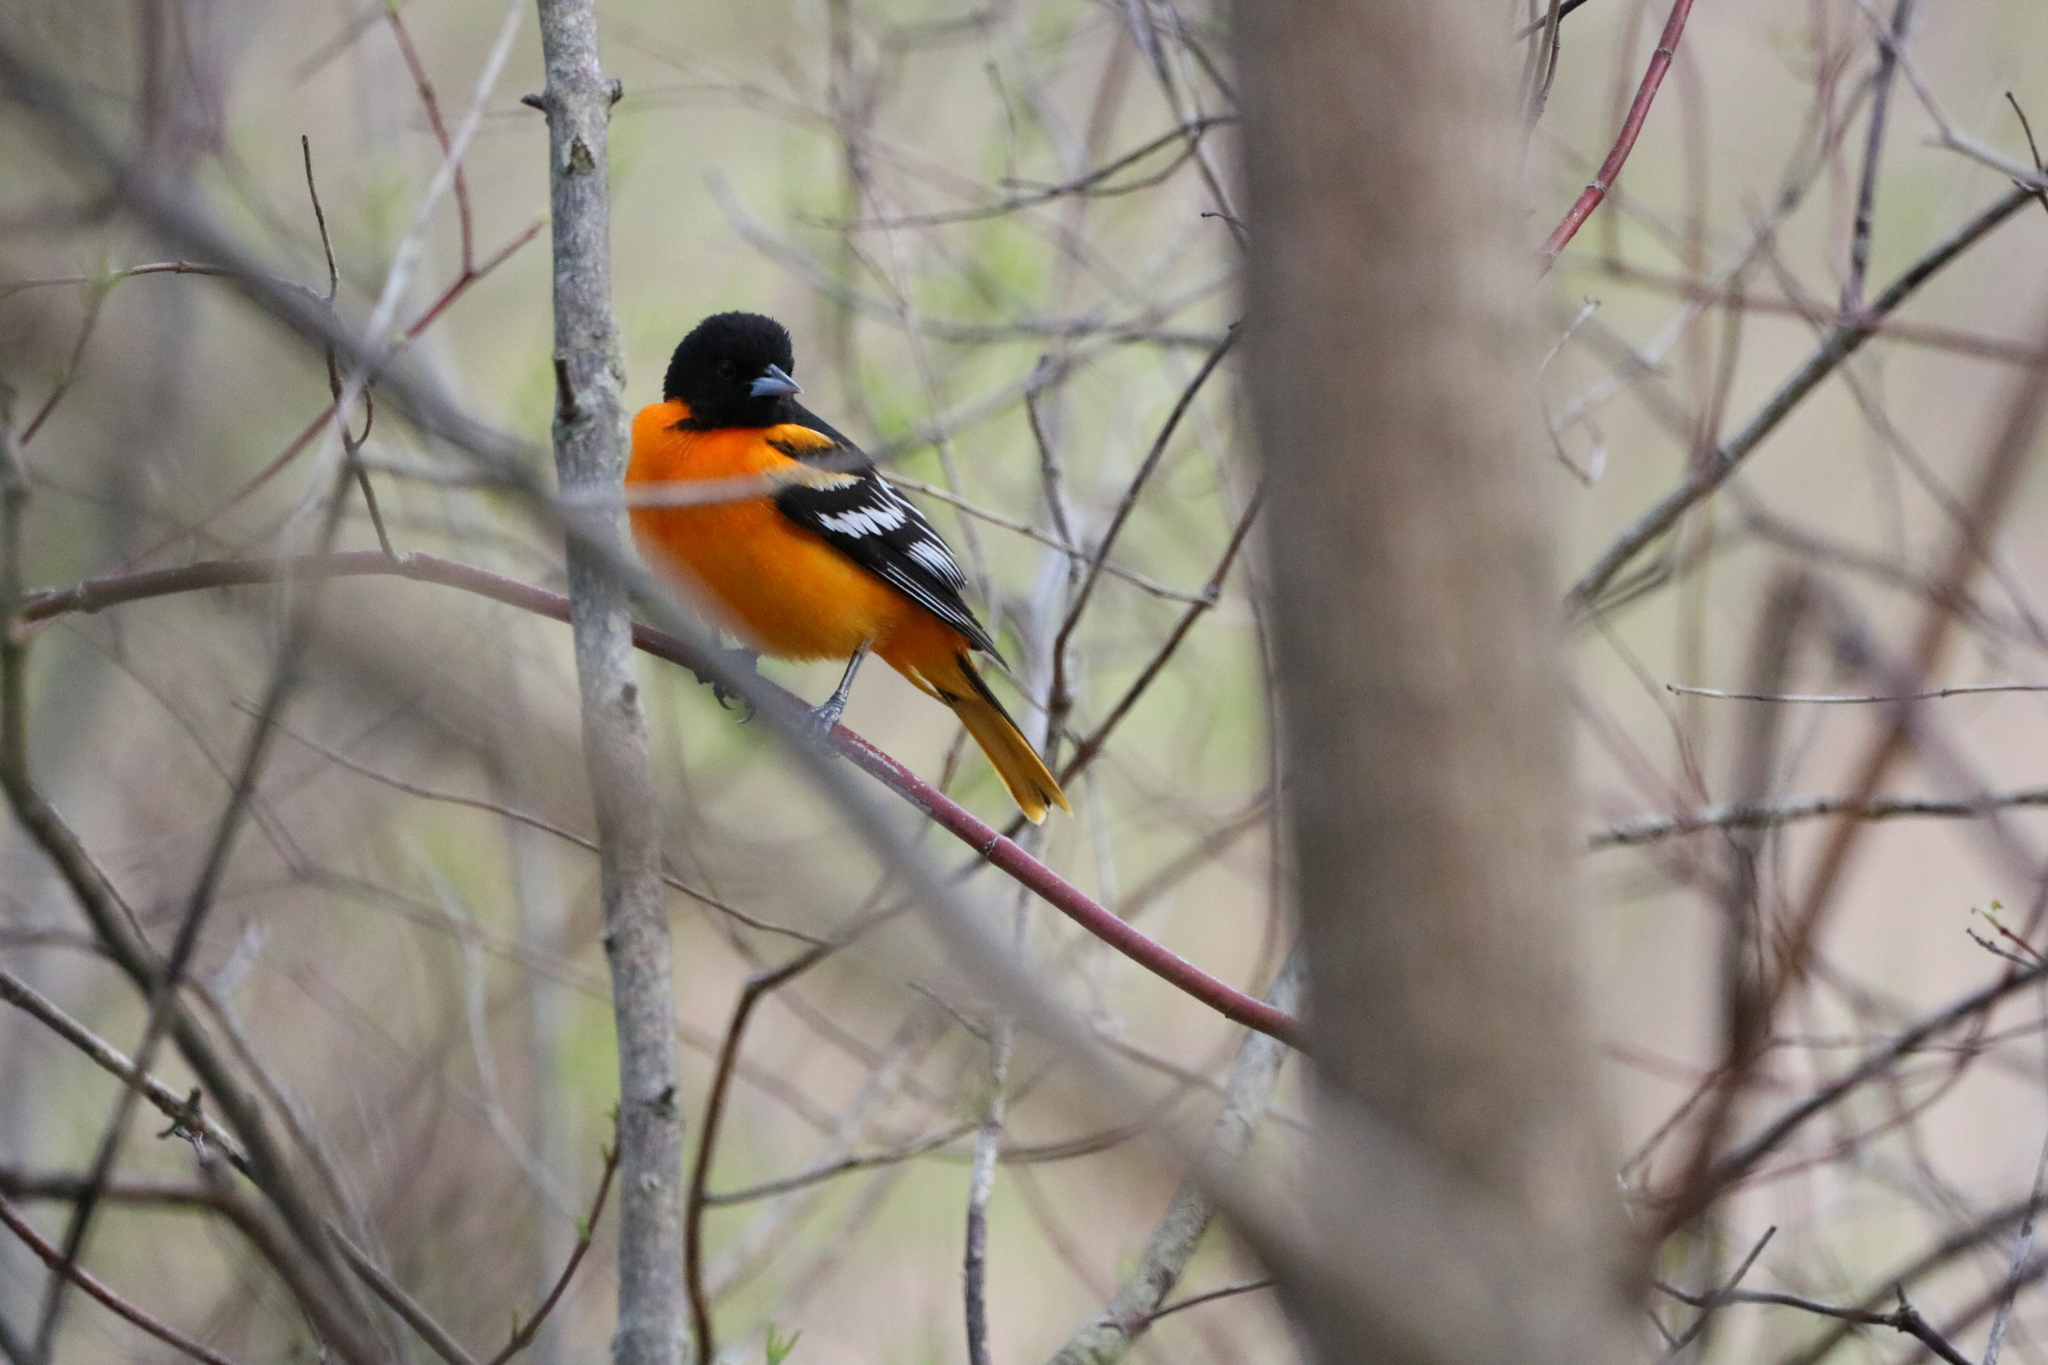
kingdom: Animalia
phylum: Chordata
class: Aves
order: Passeriformes
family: Icteridae
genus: Icterus
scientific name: Icterus galbula
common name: Baltimore oriole
